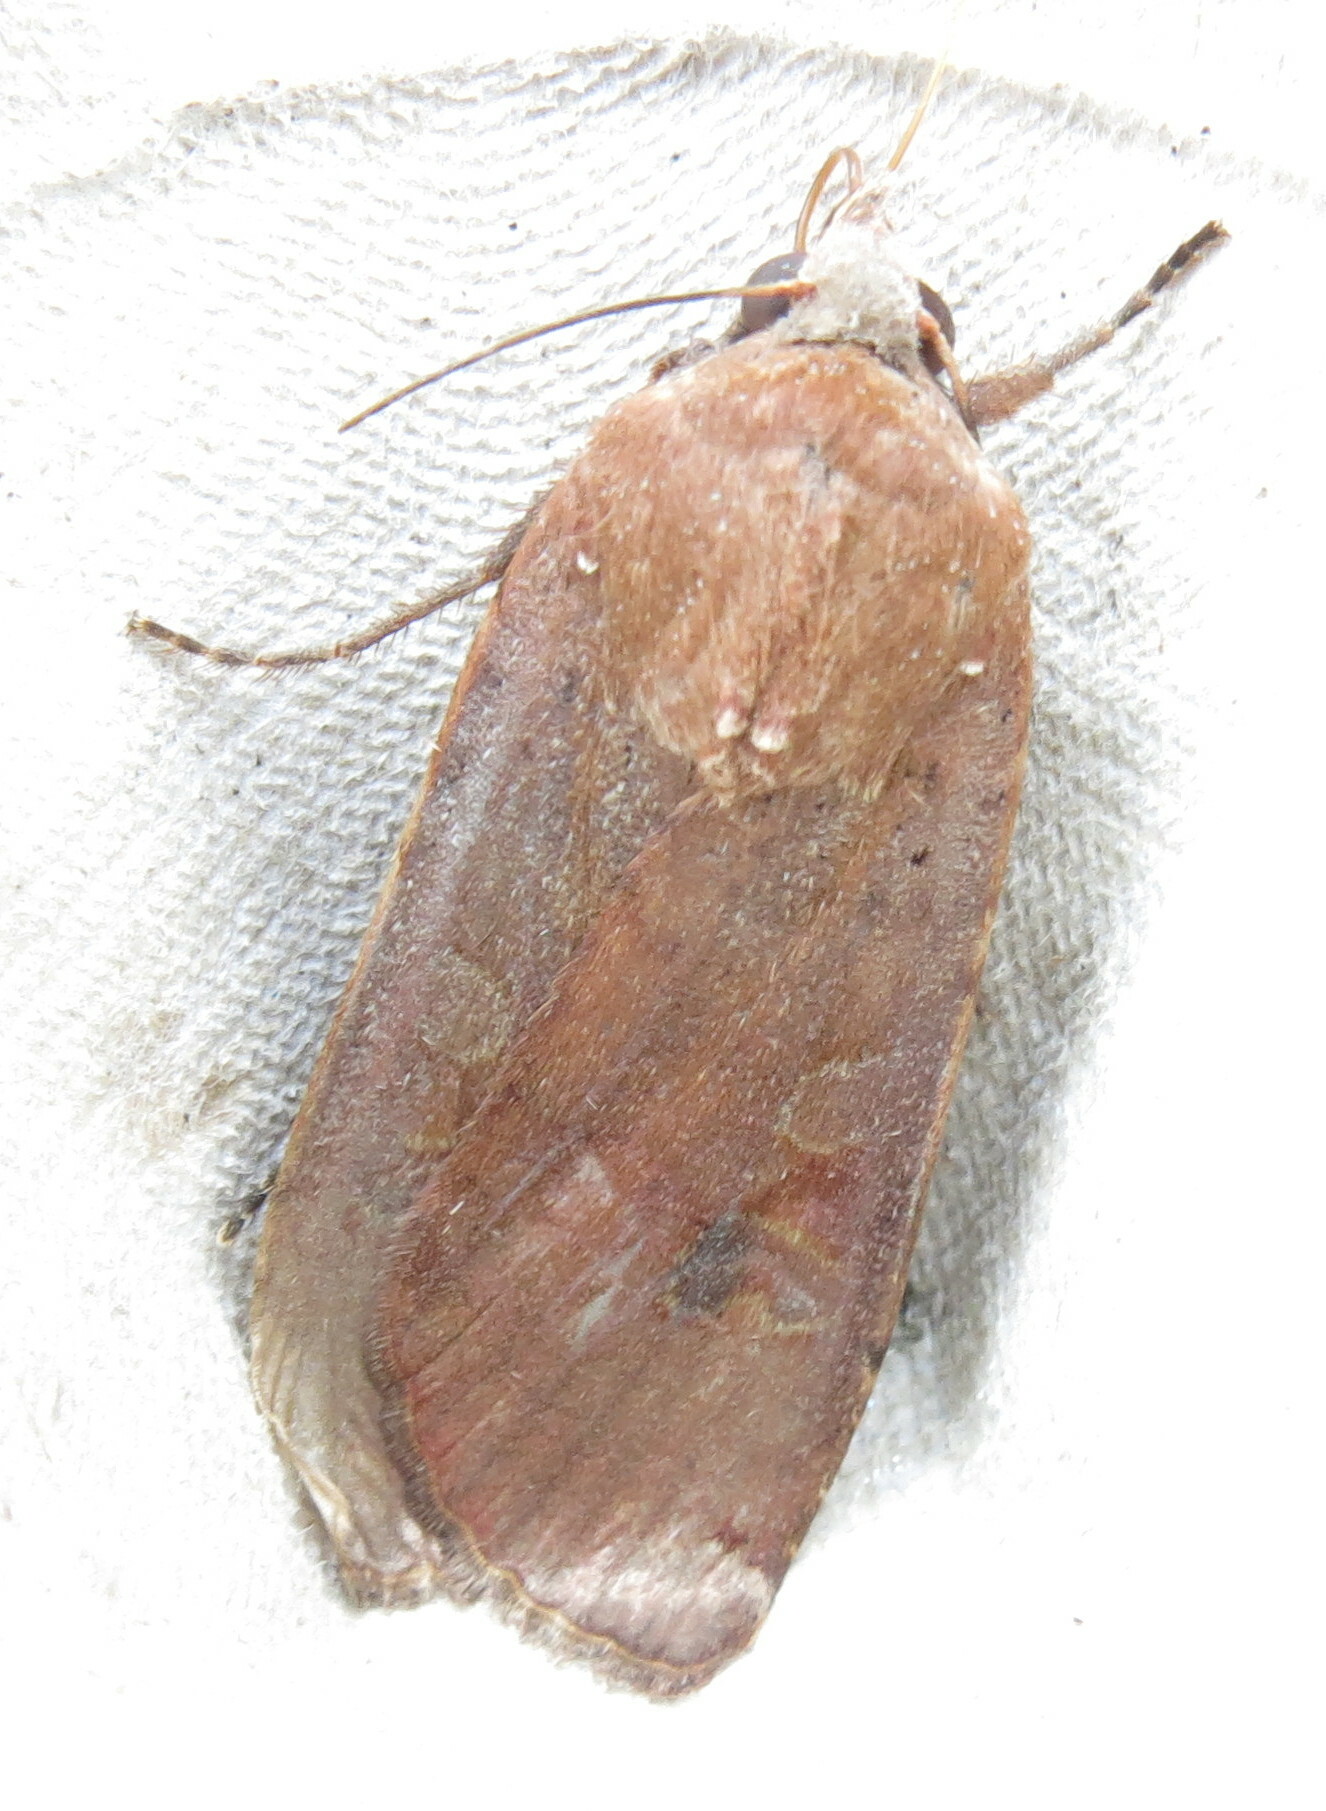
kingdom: Animalia
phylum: Arthropoda
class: Insecta
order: Lepidoptera
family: Noctuidae
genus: Noctua
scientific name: Noctua pronuba
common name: Large yellow underwing
